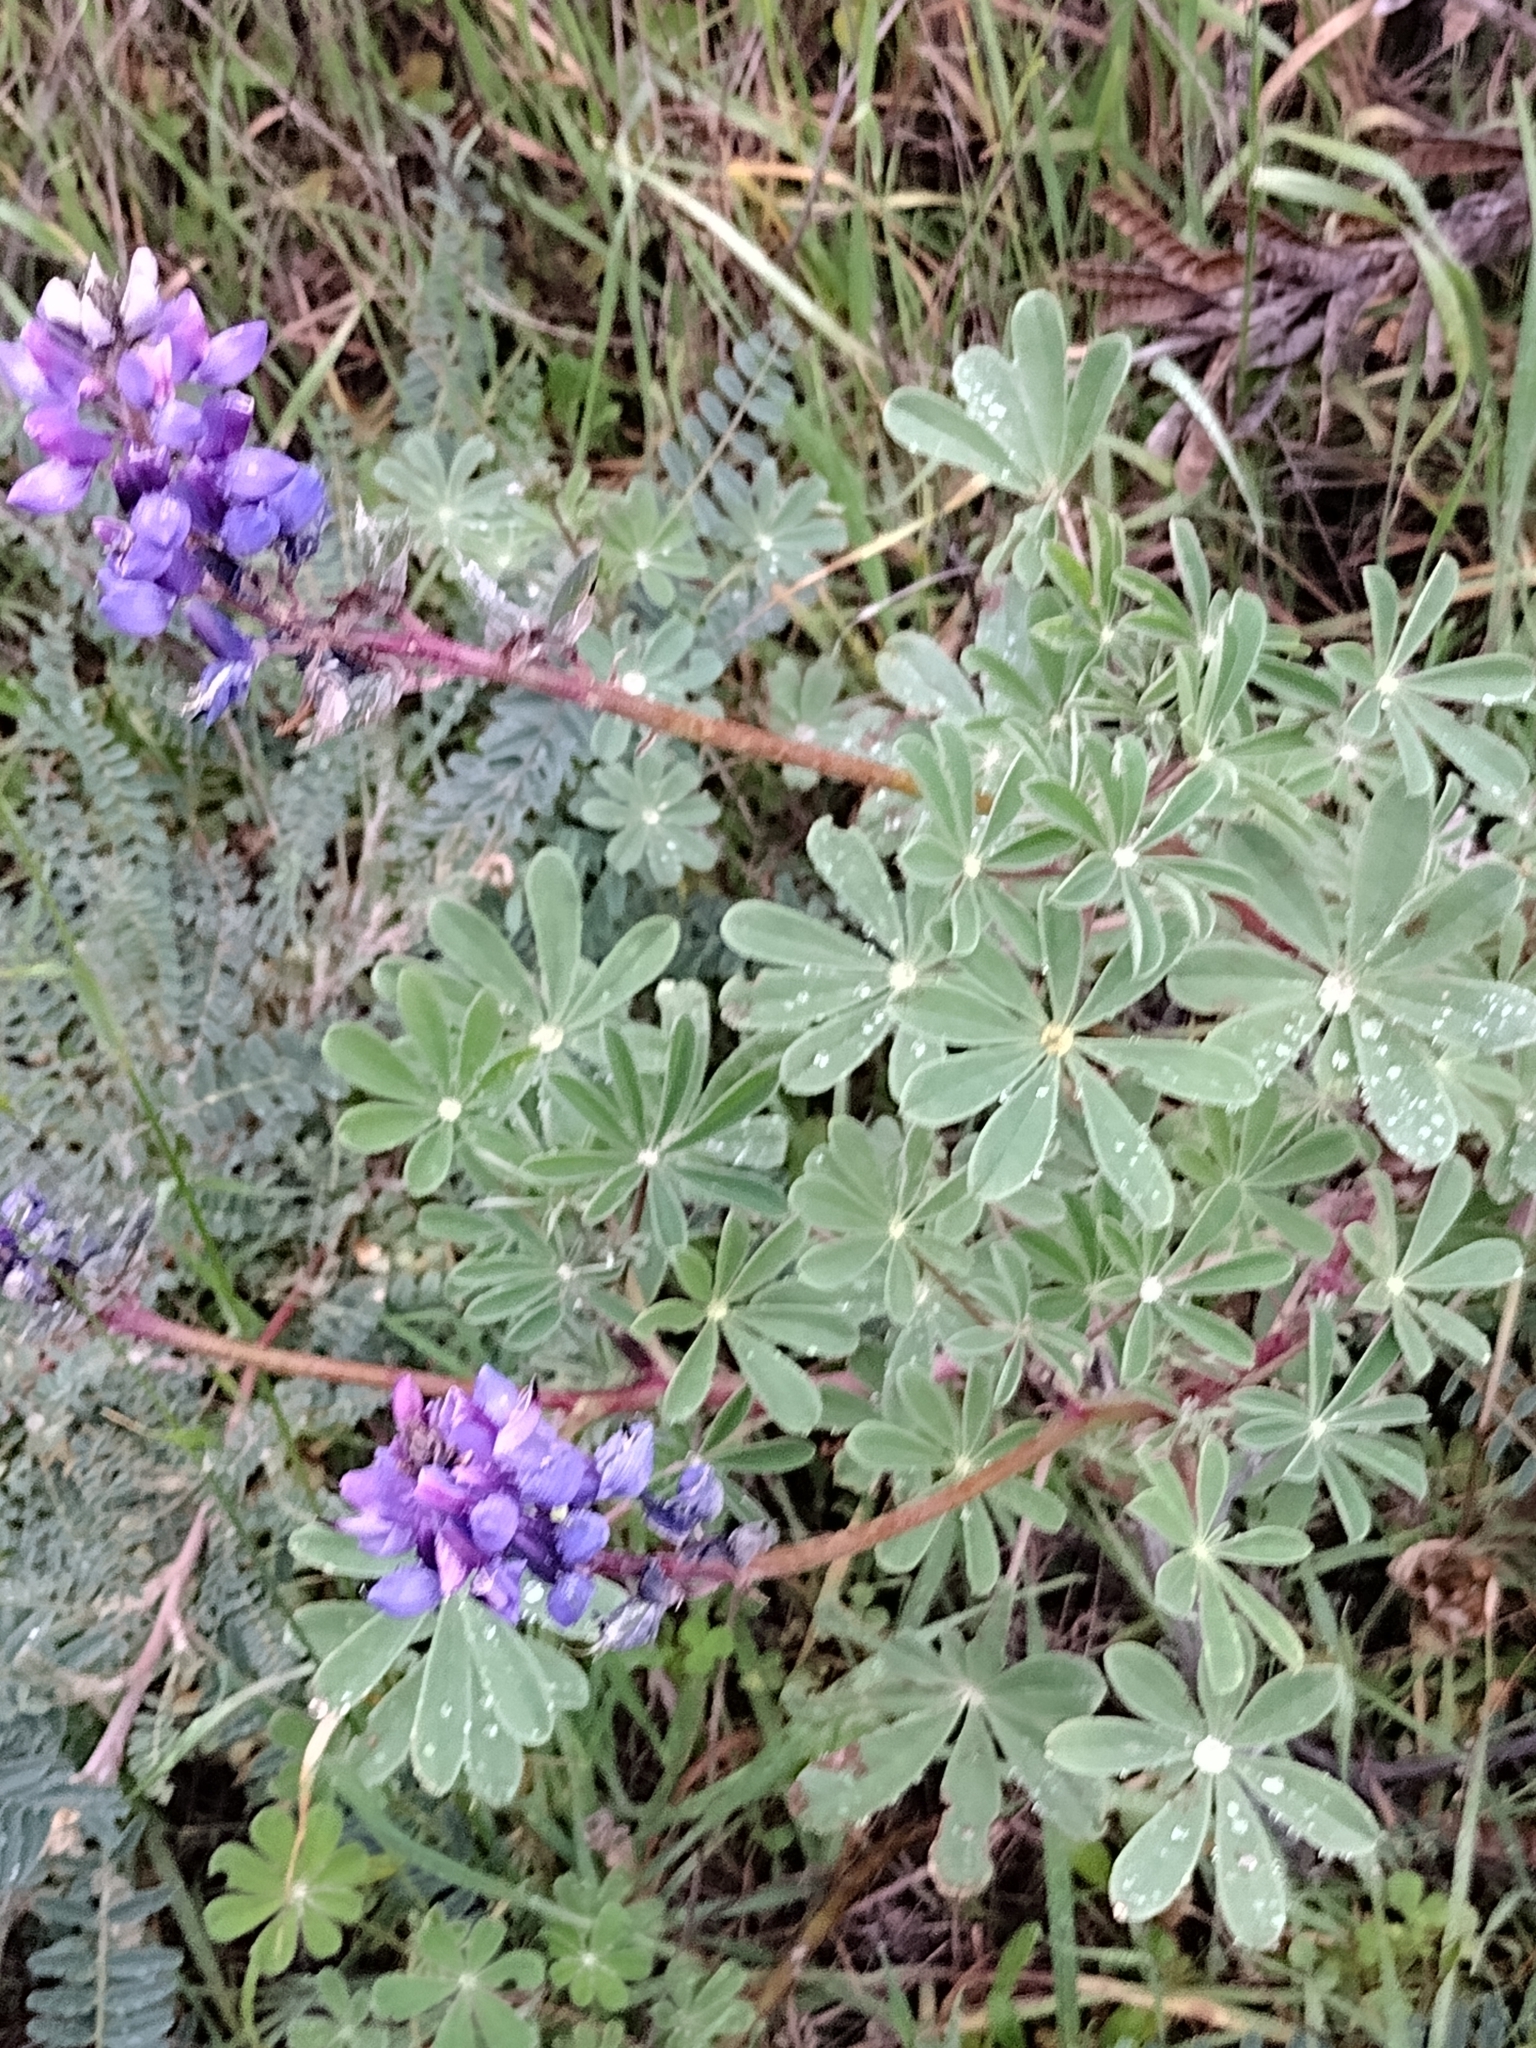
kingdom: Plantae
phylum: Tracheophyta
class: Magnoliopsida
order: Fabales
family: Fabaceae
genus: Lupinus
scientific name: Lupinus succulentus
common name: Arroyo lupine
